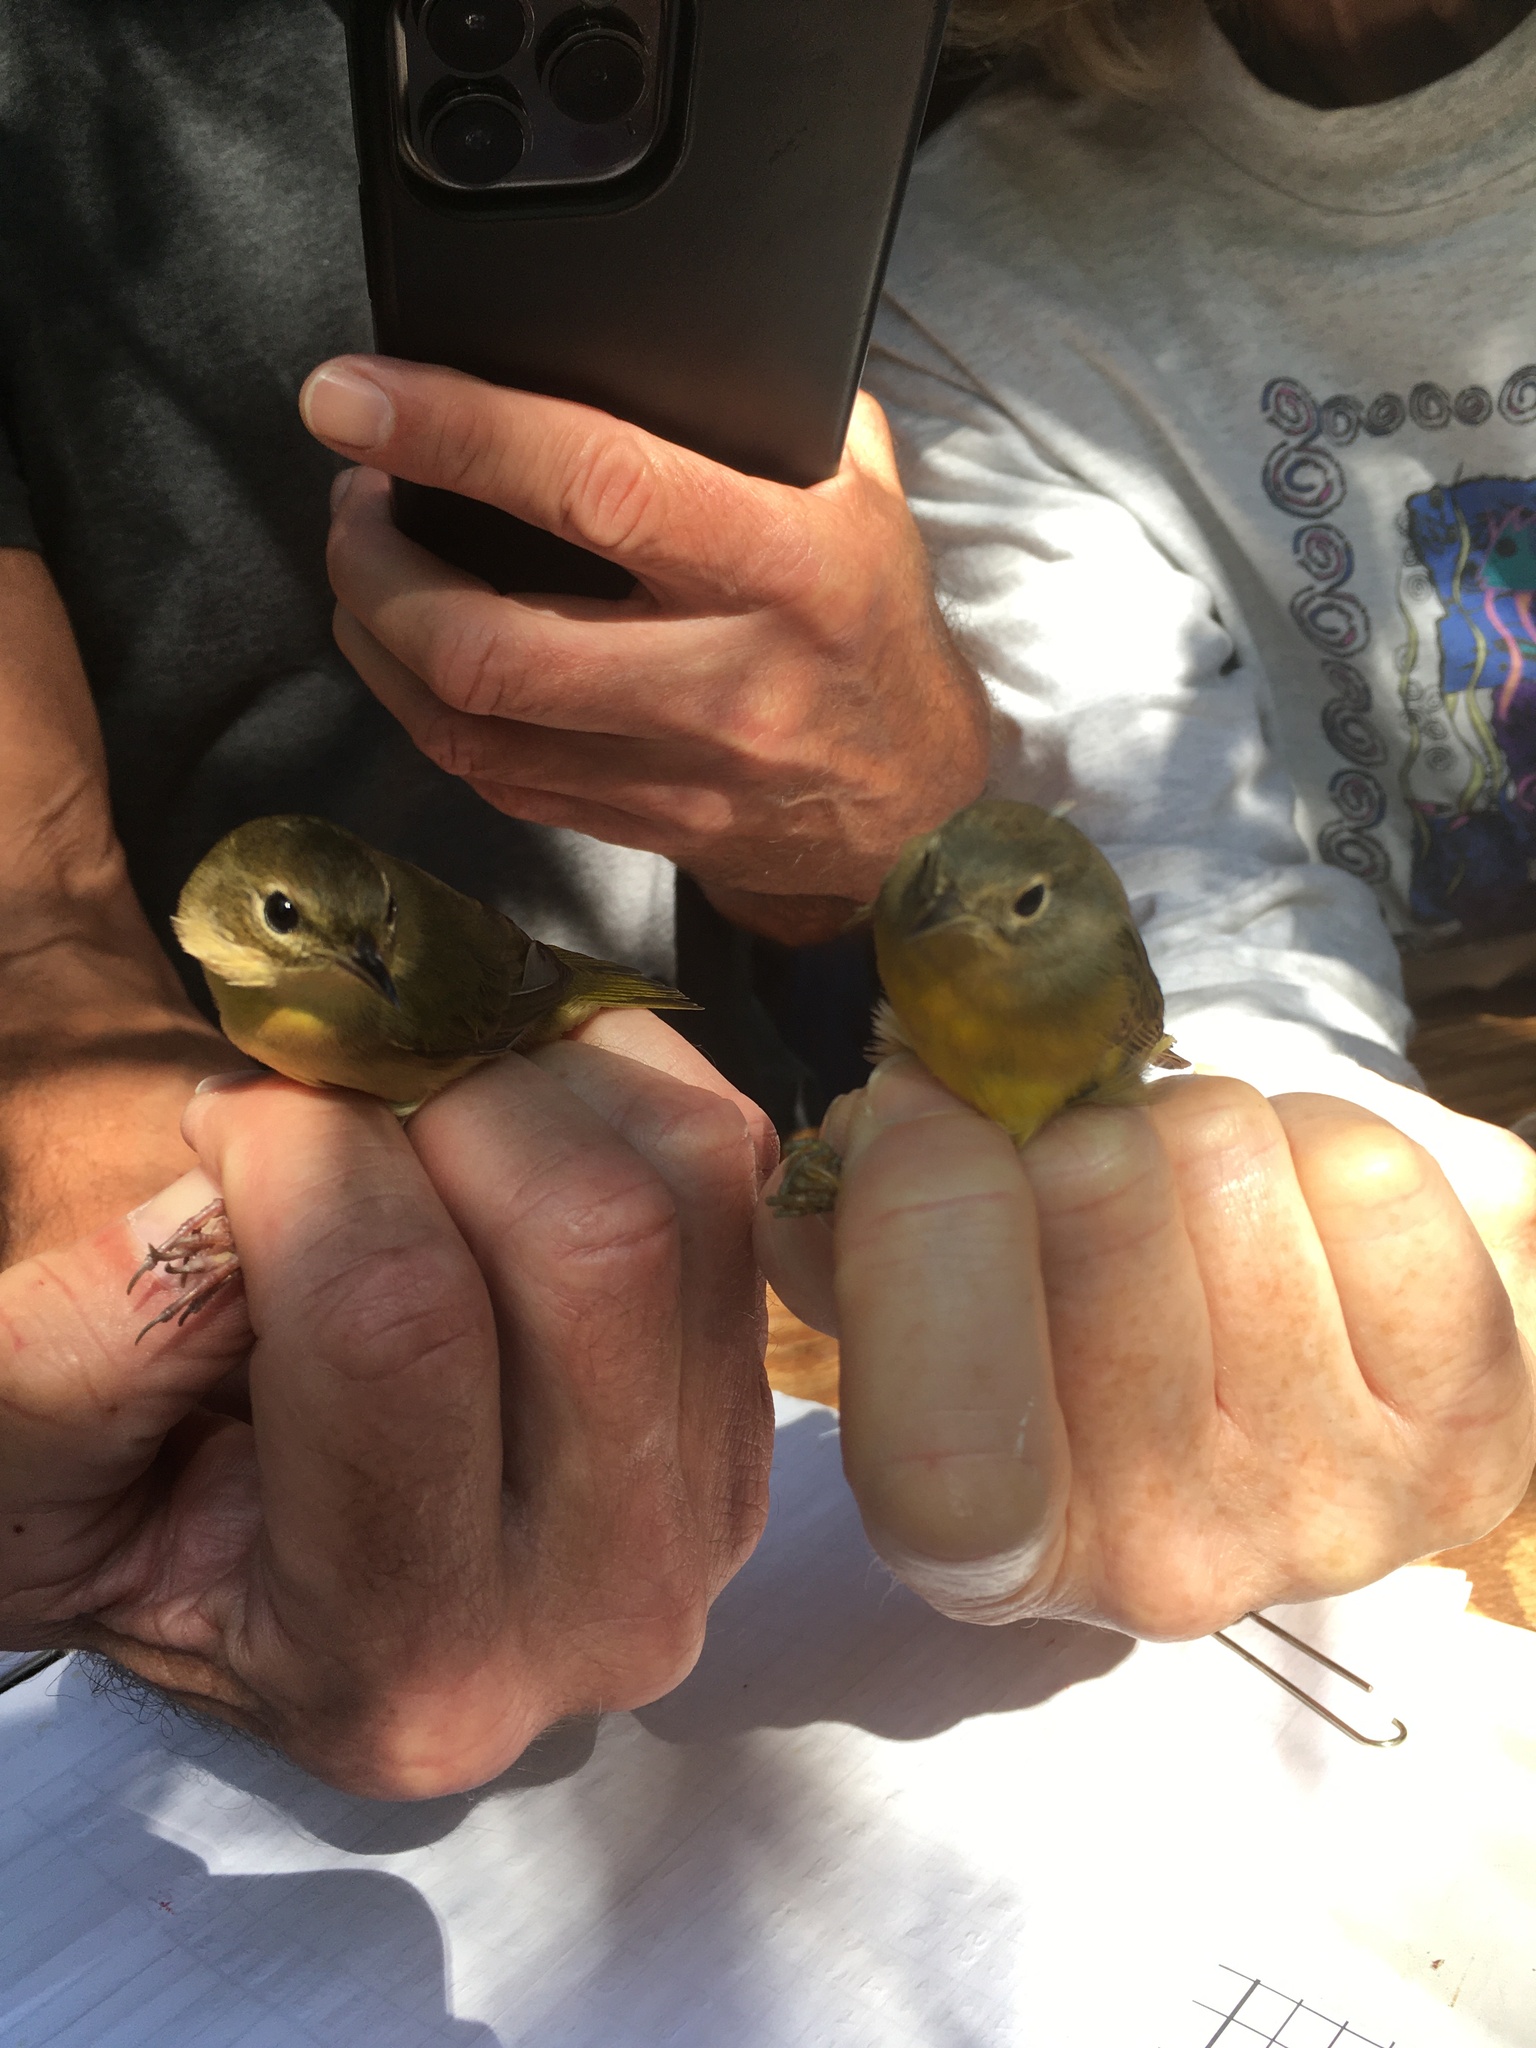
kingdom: Animalia
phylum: Chordata
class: Aves
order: Passeriformes
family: Parulidae
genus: Leiothlypis
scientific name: Leiothlypis ruficapilla
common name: Nashville warbler
